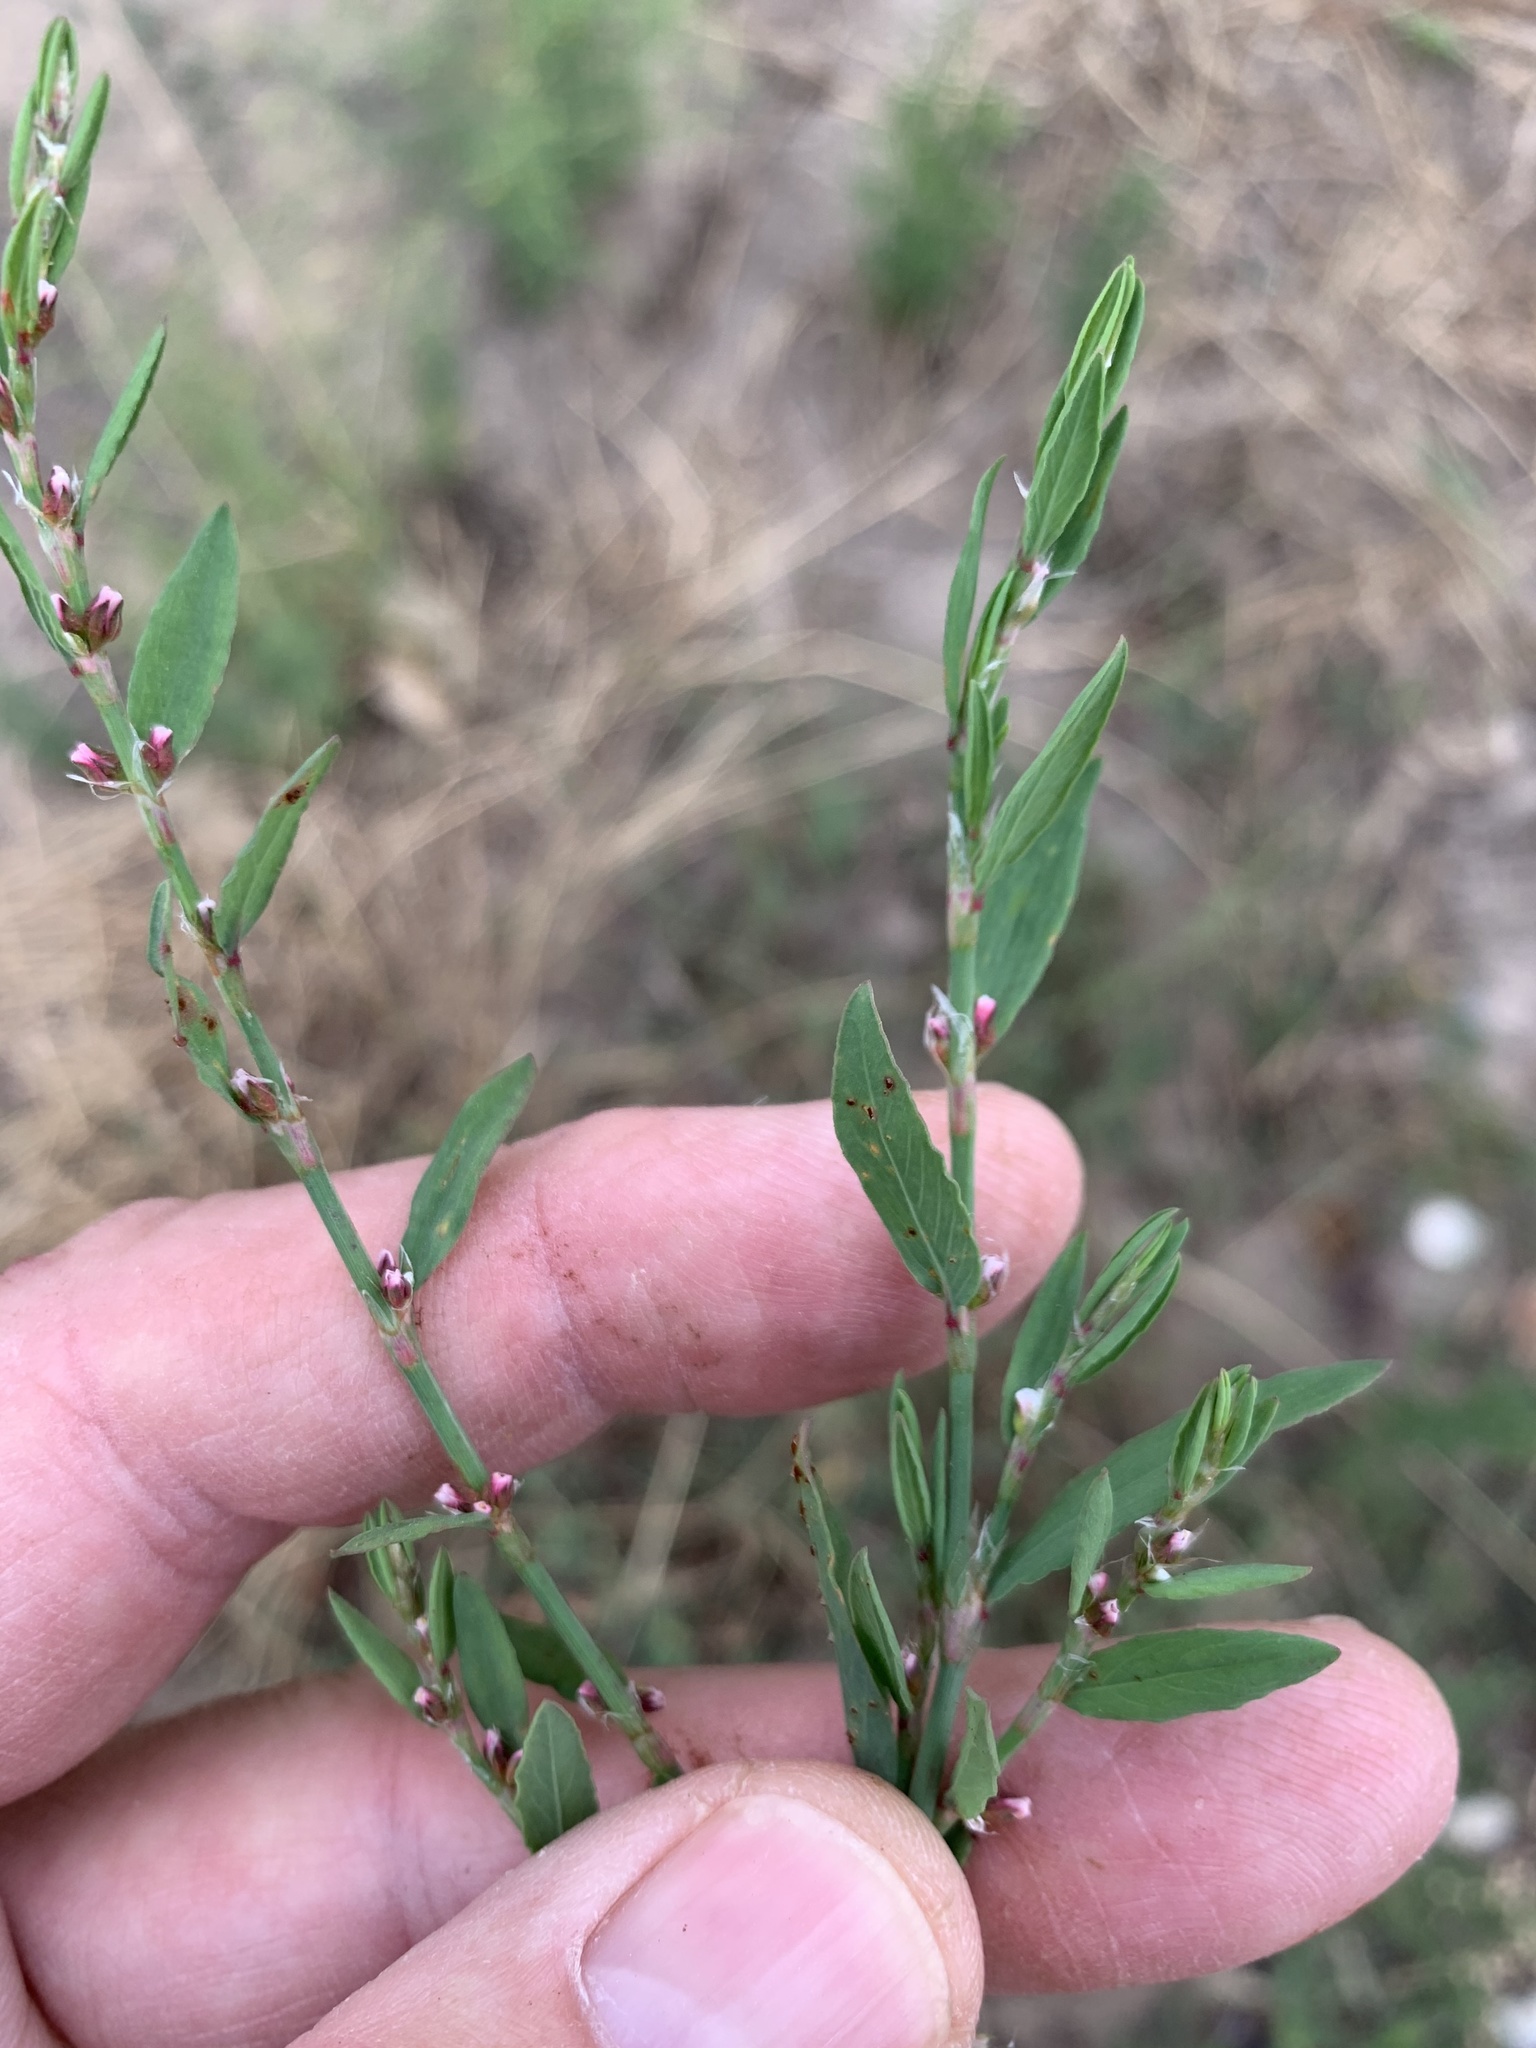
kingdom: Plantae
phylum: Tracheophyta
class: Magnoliopsida
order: Caryophyllales
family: Polygonaceae
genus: Polygonum
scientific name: Polygonum aviculare
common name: Prostrate knotweed
